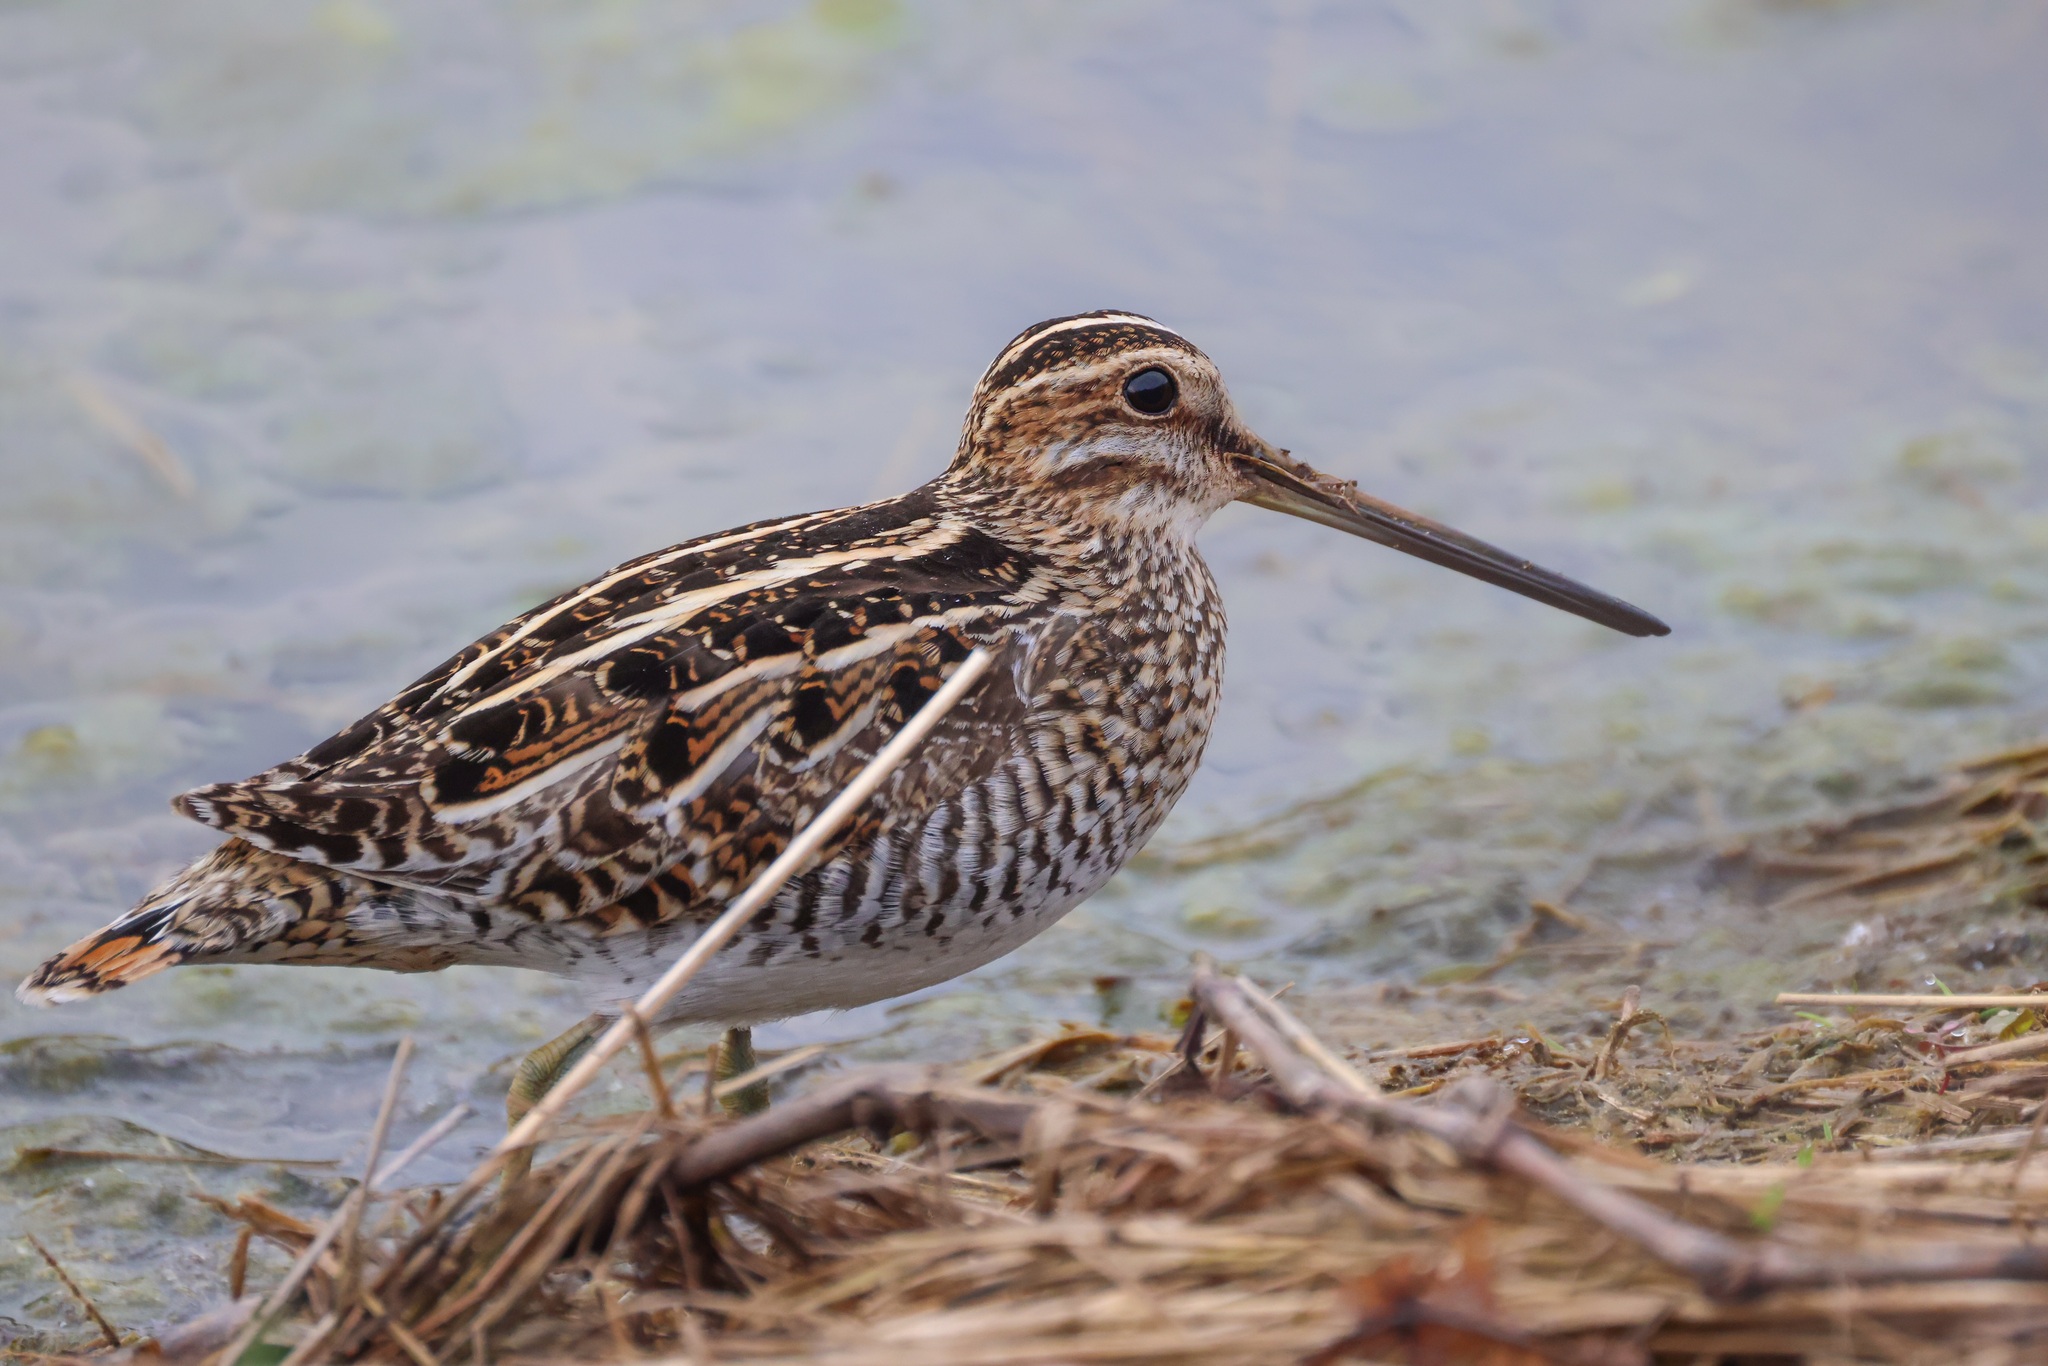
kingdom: Animalia
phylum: Chordata
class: Aves
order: Charadriiformes
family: Scolopacidae
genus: Gallinago
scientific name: Gallinago delicata
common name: Wilson's snipe
